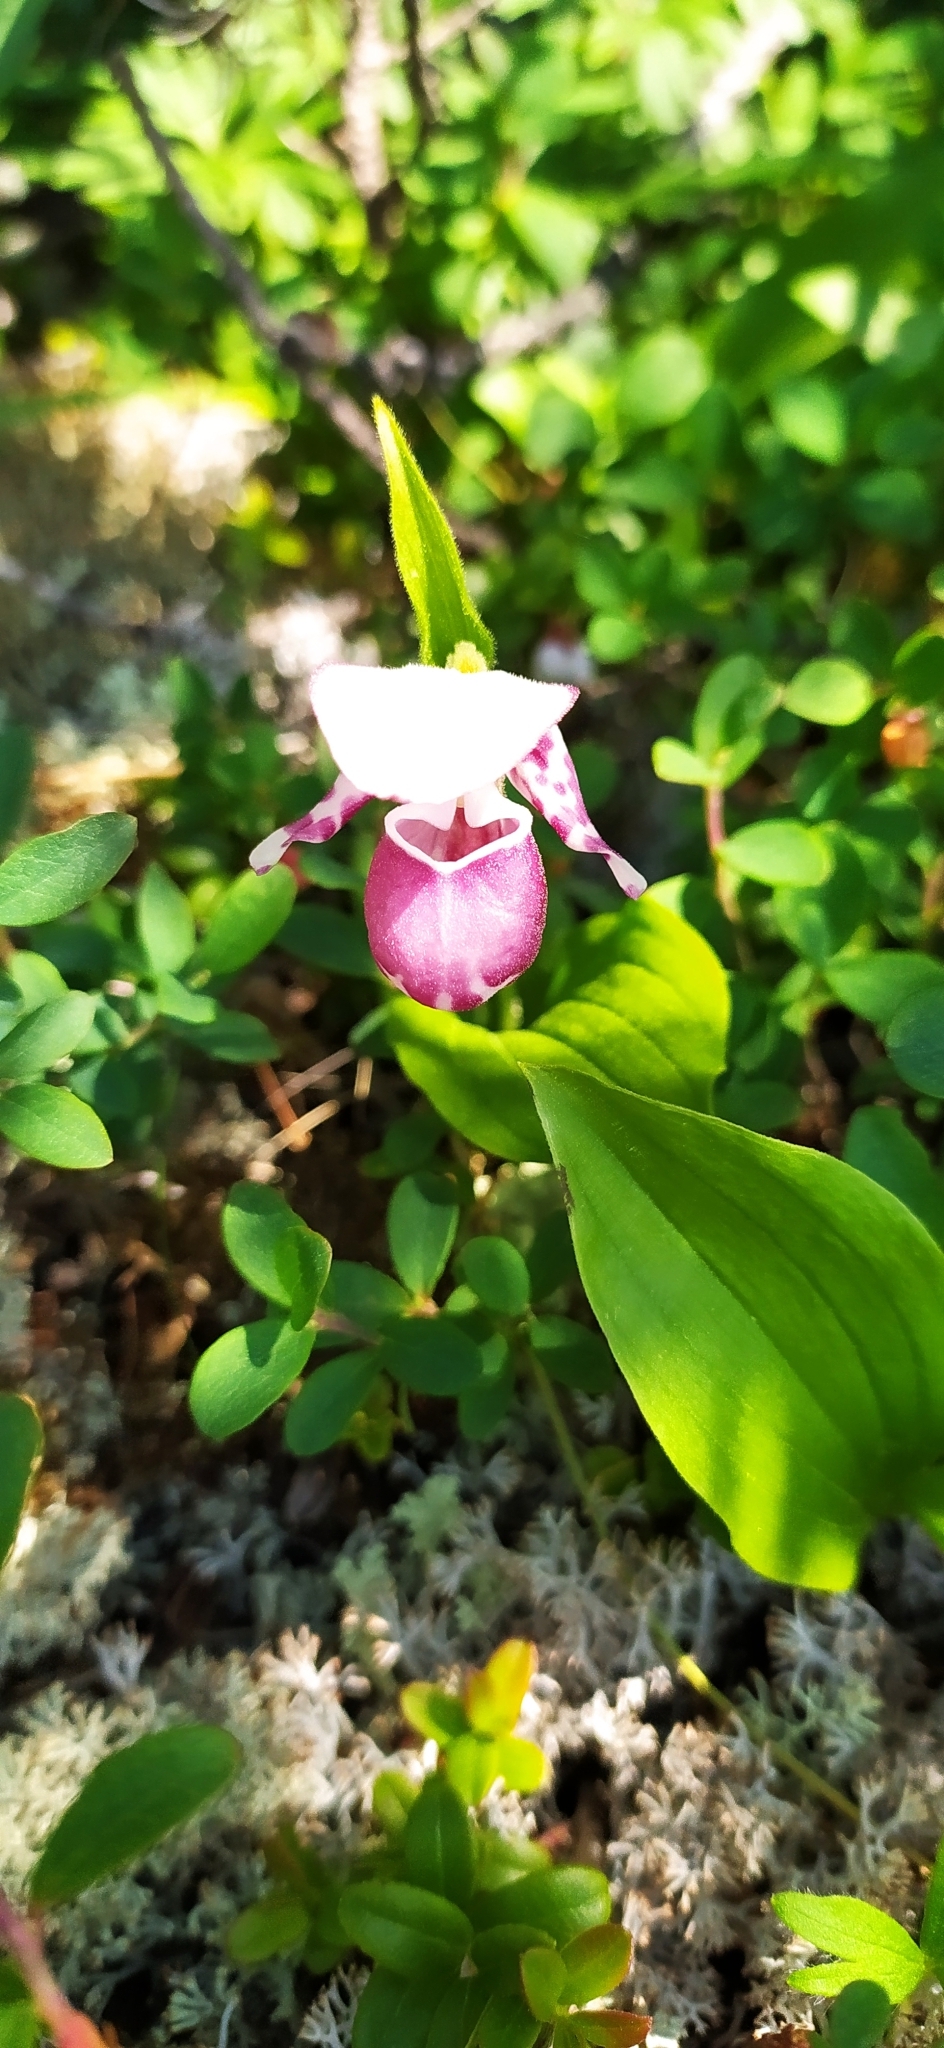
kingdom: Plantae
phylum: Tracheophyta
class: Liliopsida
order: Asparagales
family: Orchidaceae
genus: Cypripedium
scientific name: Cypripedium guttatum
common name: Pink lady slipper
